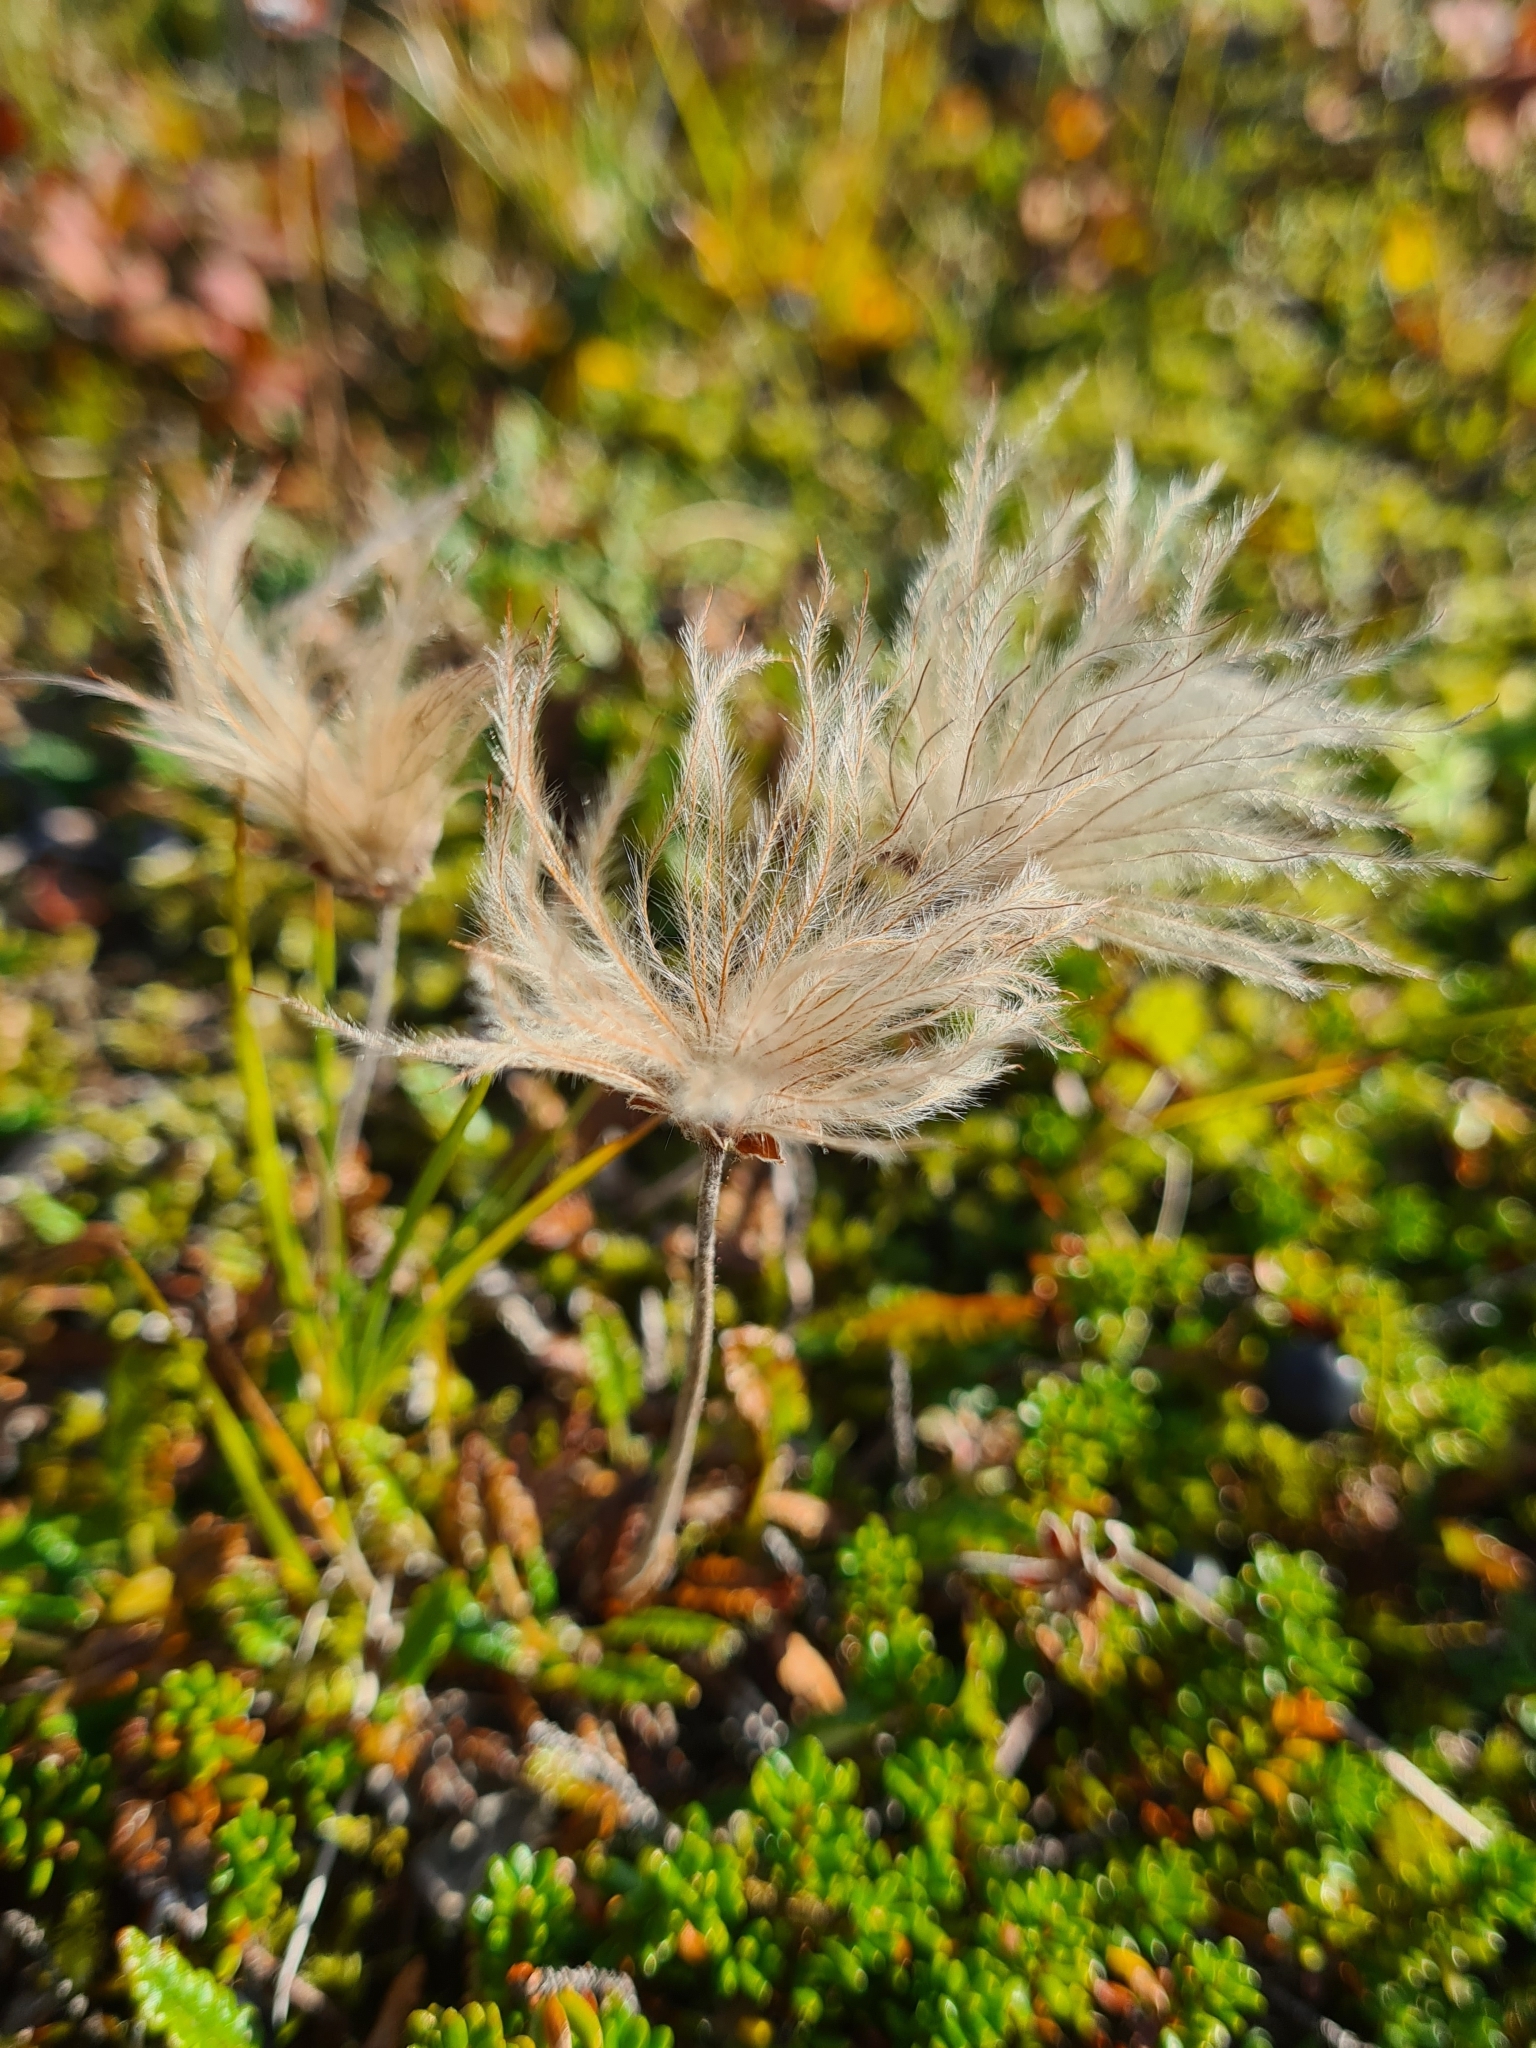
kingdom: Plantae
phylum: Tracheophyta
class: Magnoliopsida
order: Rosales
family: Rosaceae
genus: Dryas
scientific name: Dryas octopetala
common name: Eight-petal mountain-avens
